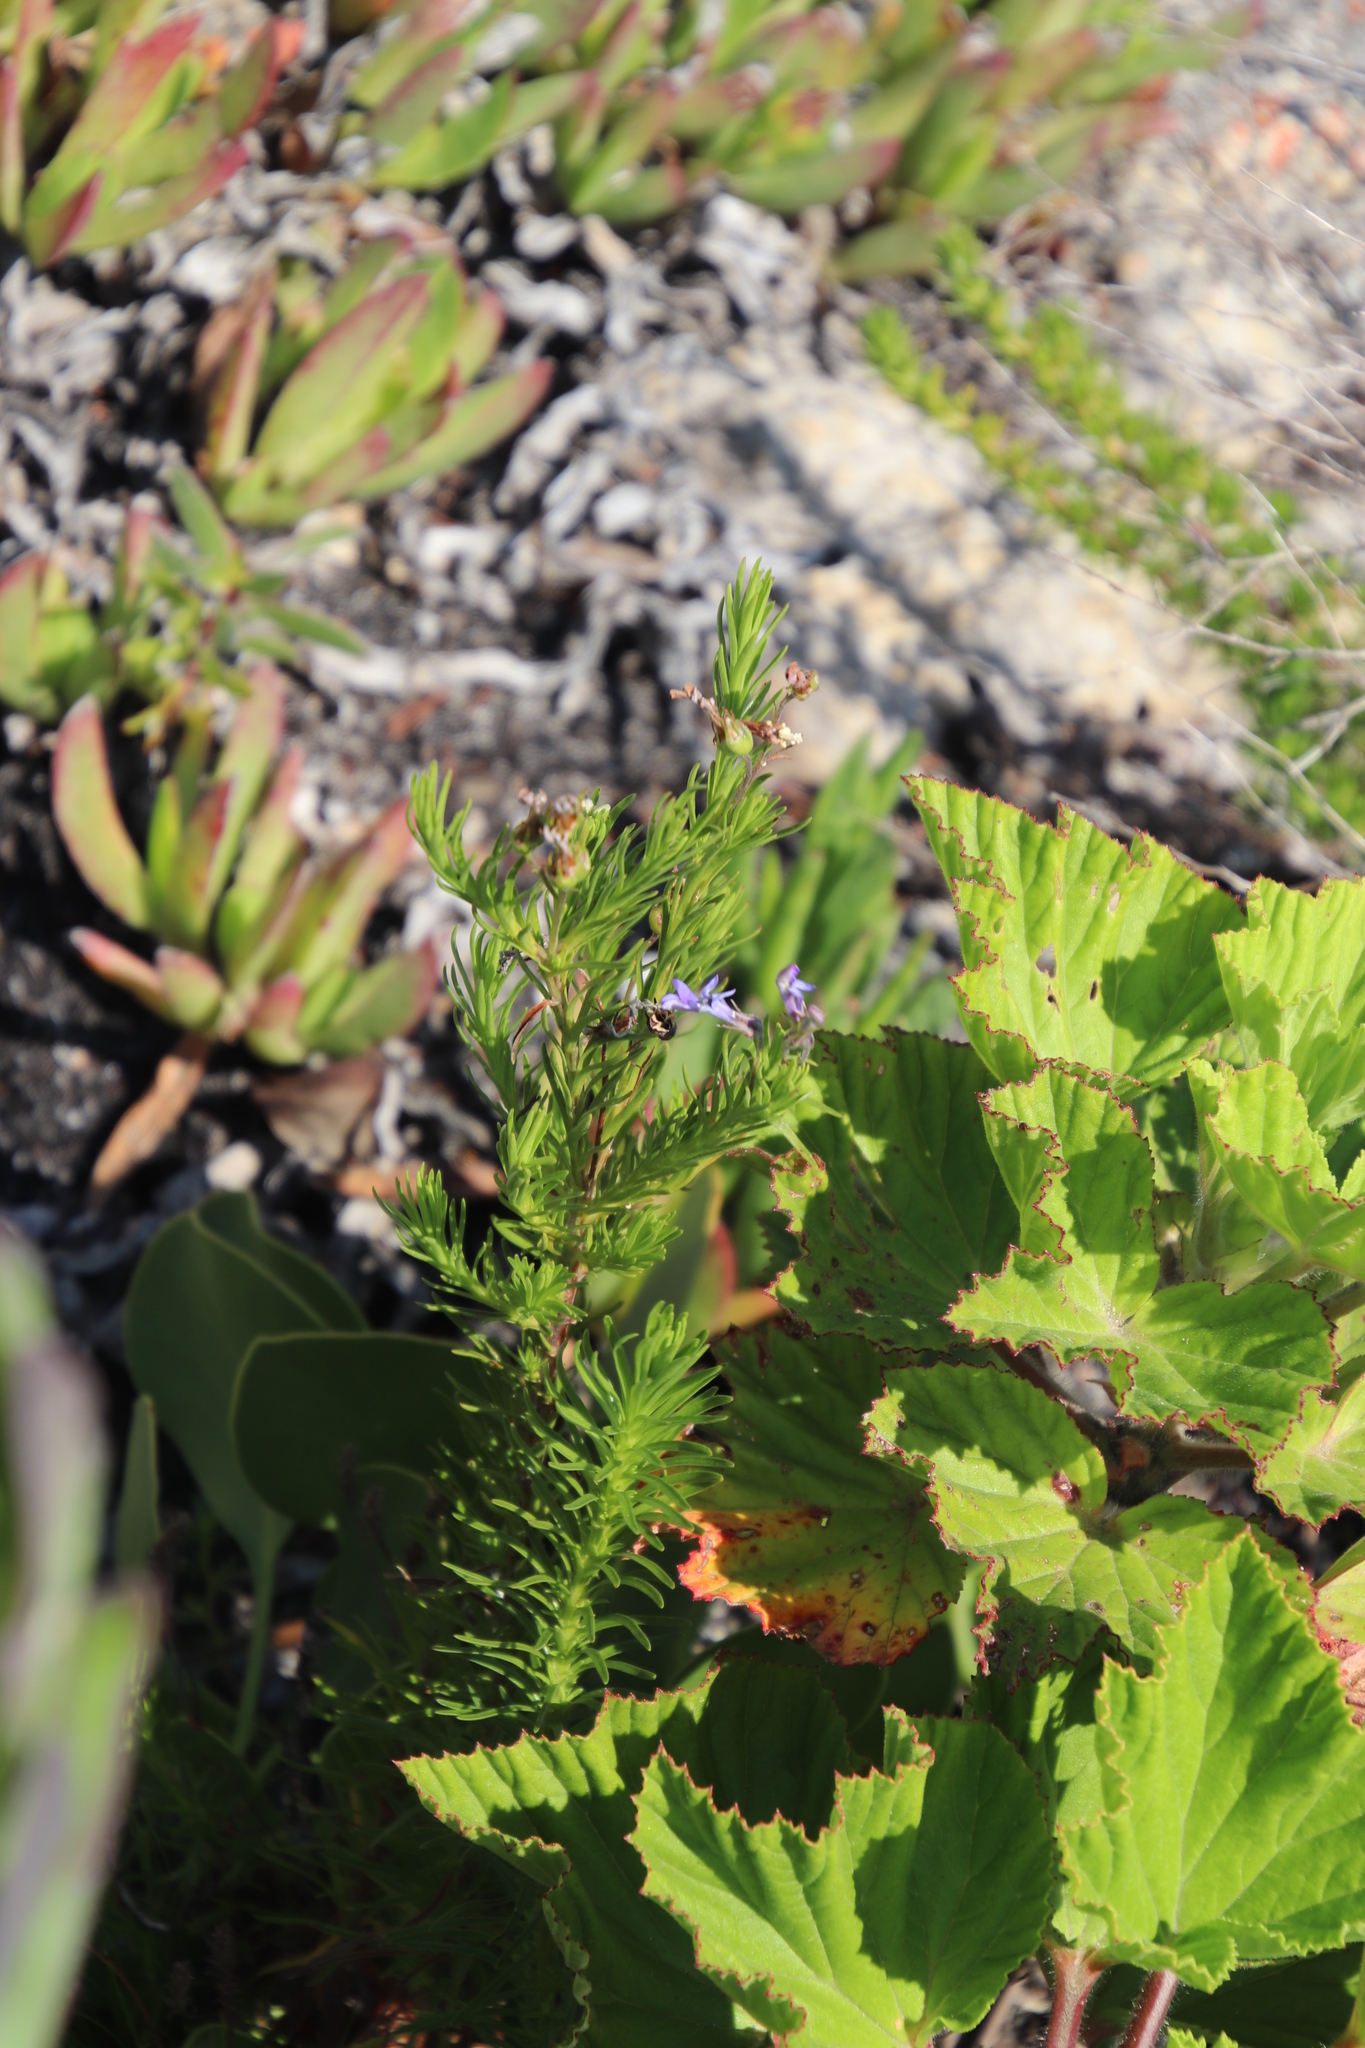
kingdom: Plantae
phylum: Tracheophyta
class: Magnoliopsida
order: Asterales
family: Campanulaceae
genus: Lobelia
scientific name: Lobelia pinifolia
